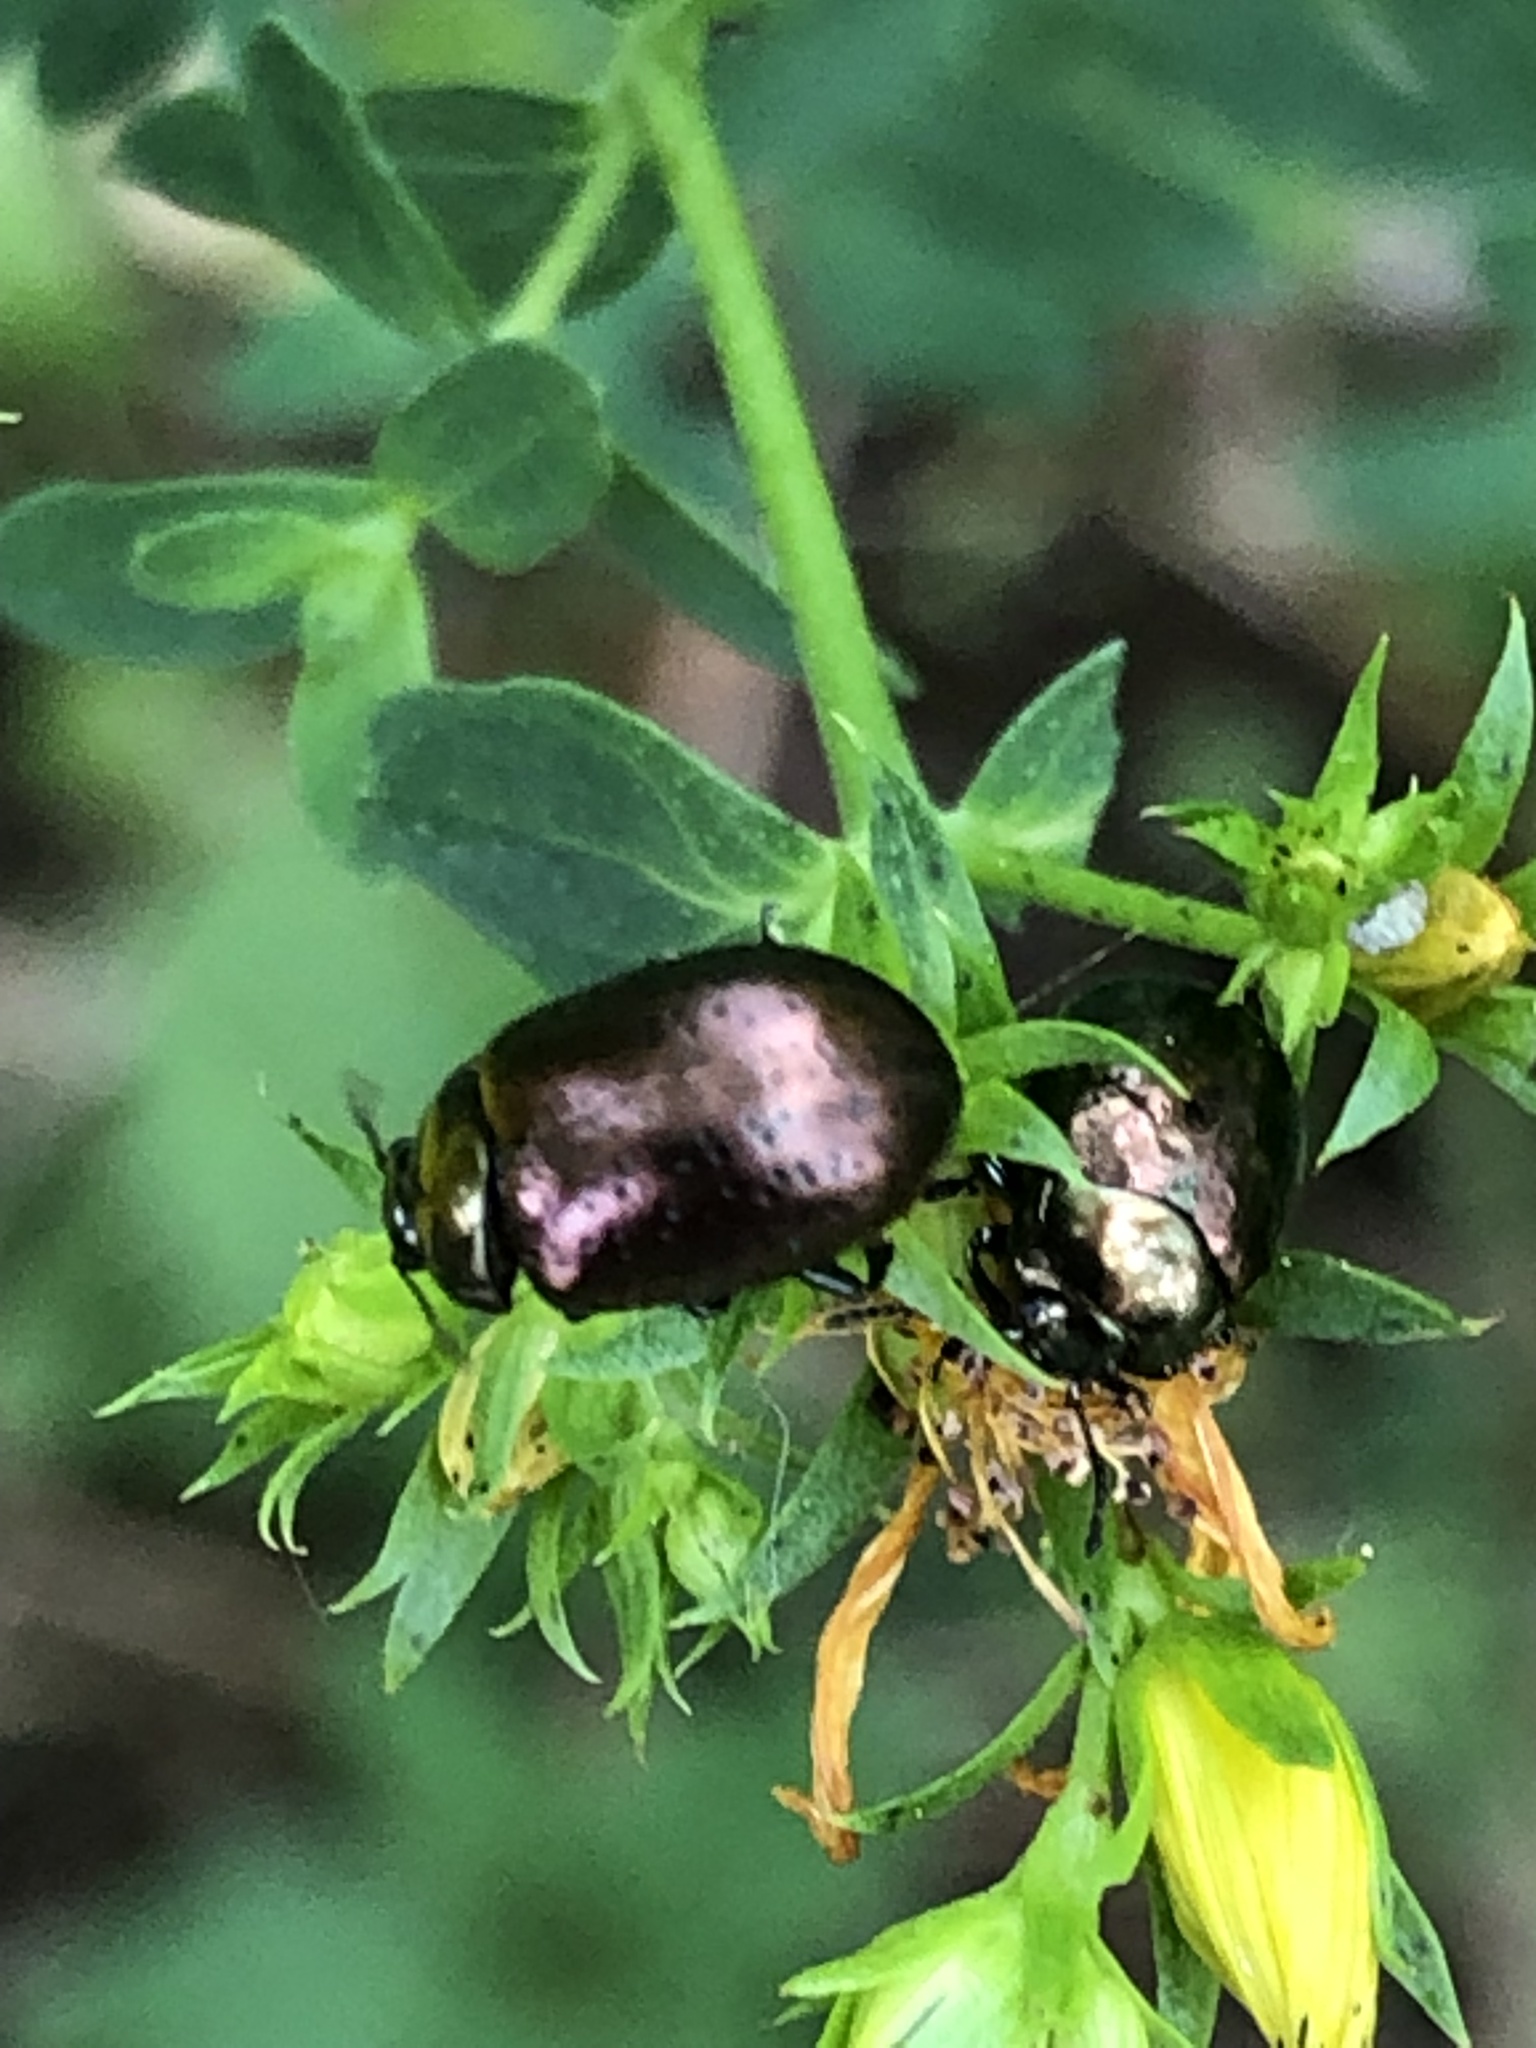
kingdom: Animalia
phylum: Arthropoda
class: Insecta
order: Coleoptera
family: Chrysomelidae
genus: Chrysolina
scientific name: Chrysolina hyperici
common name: St. johnswort beetle
